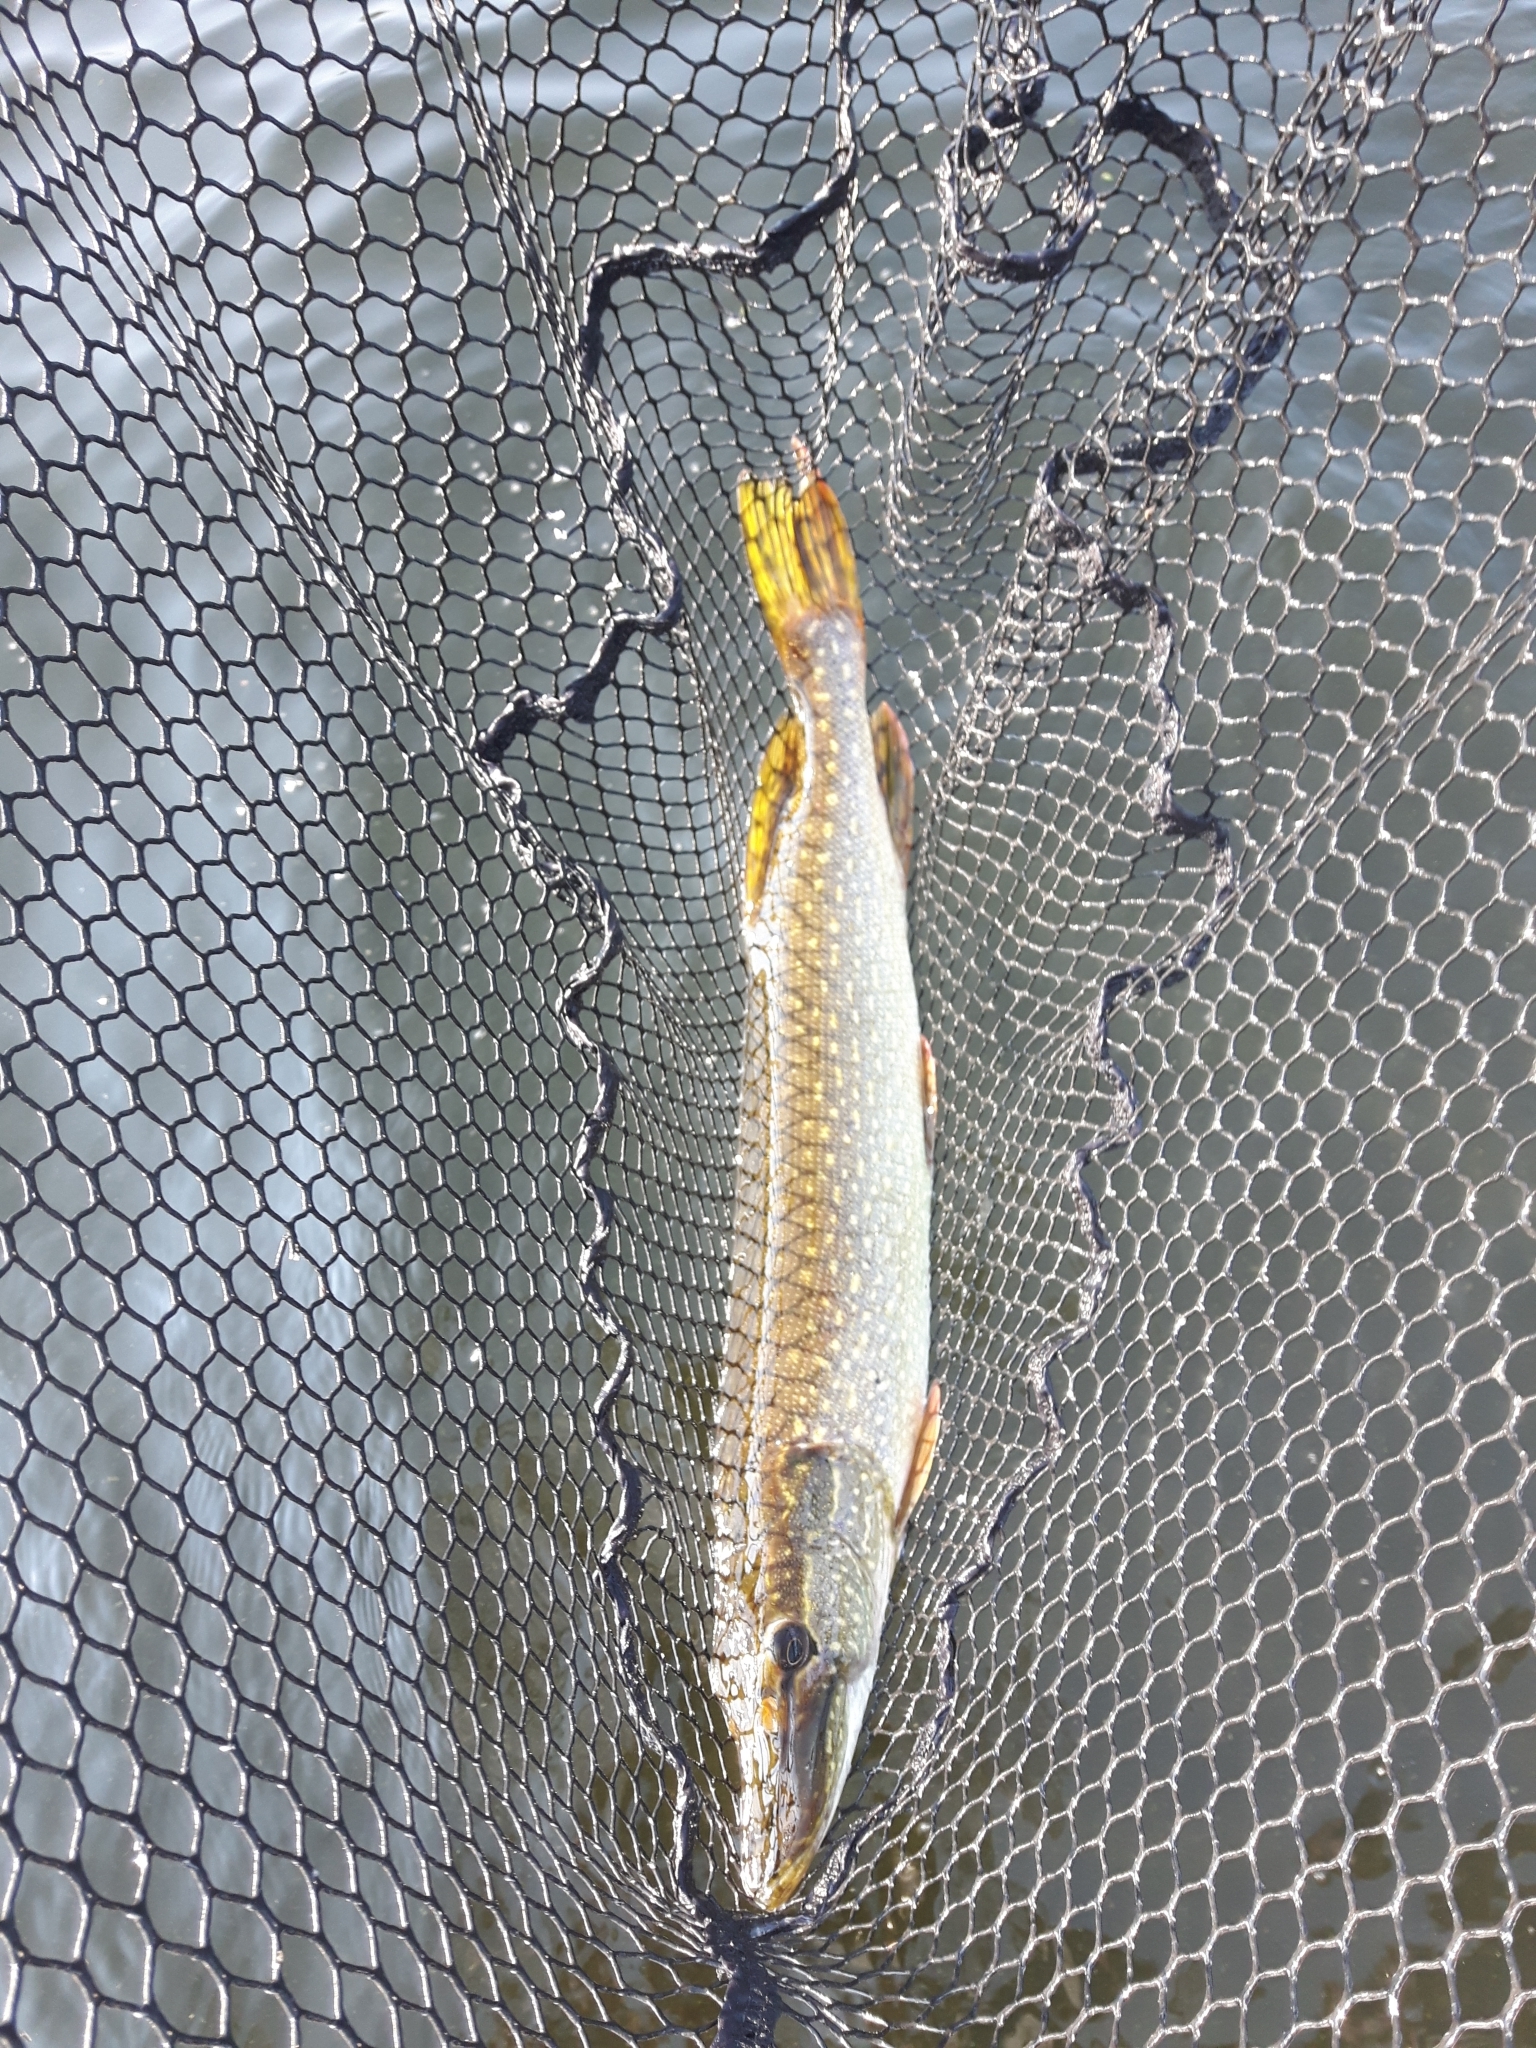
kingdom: Animalia
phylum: Chordata
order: Esociformes
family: Esocidae
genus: Esox
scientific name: Esox lucius
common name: Northern pike
